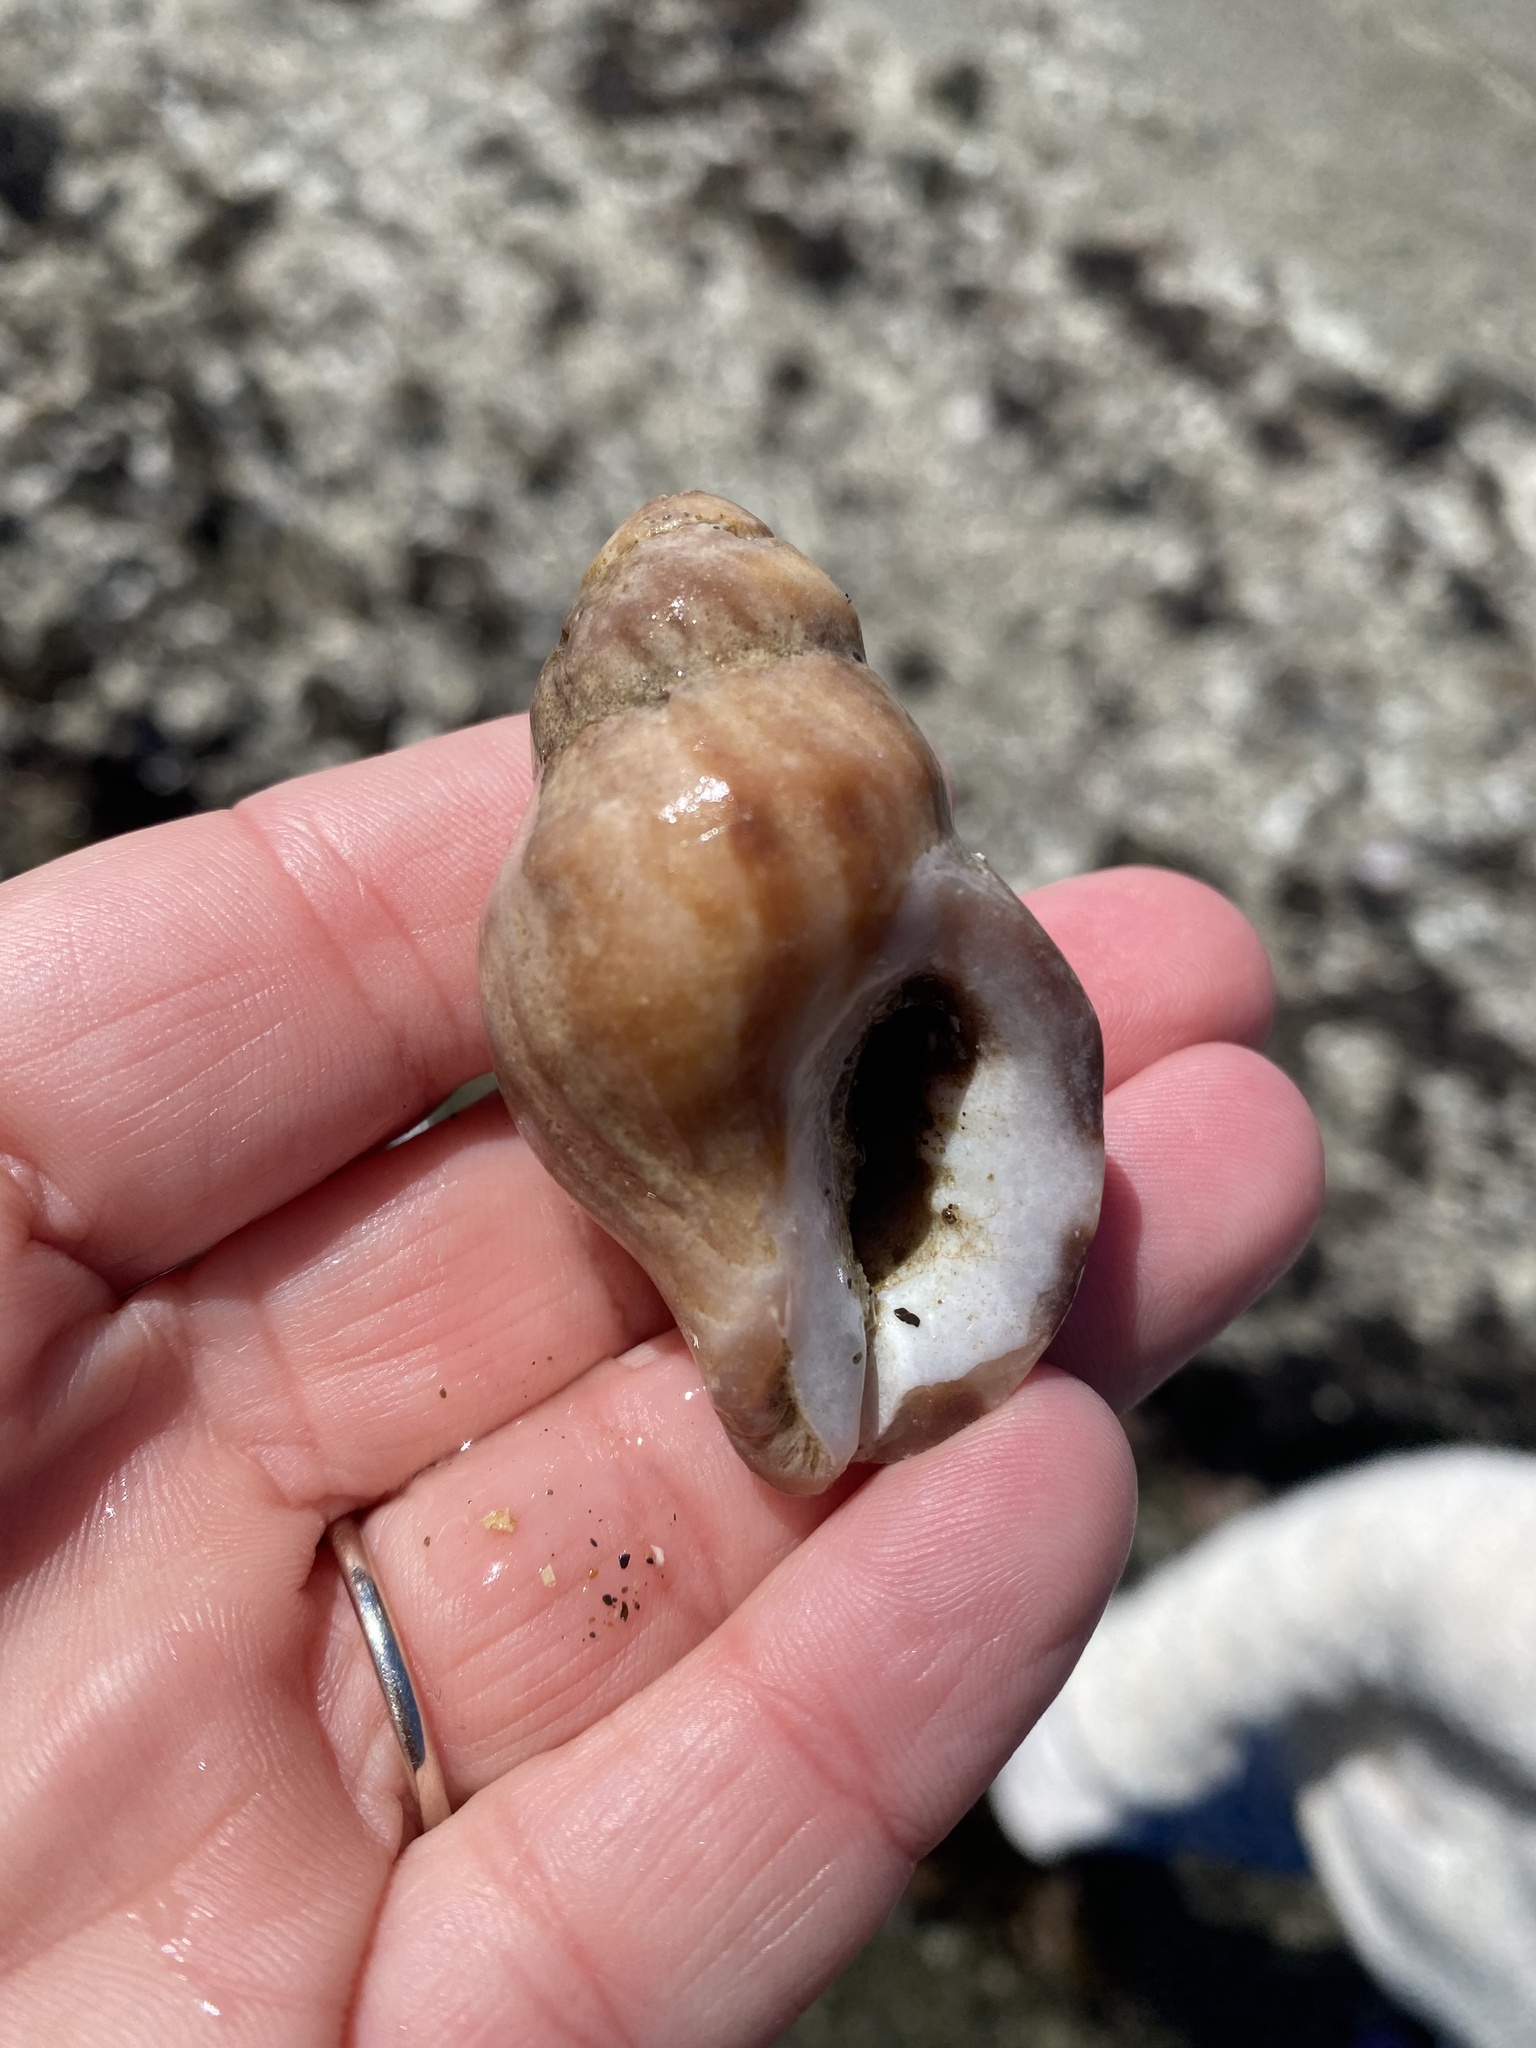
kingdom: Animalia
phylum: Mollusca
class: Gastropoda
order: Neogastropoda
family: Muricidae
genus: Nucella
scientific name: Nucella lamellosa
